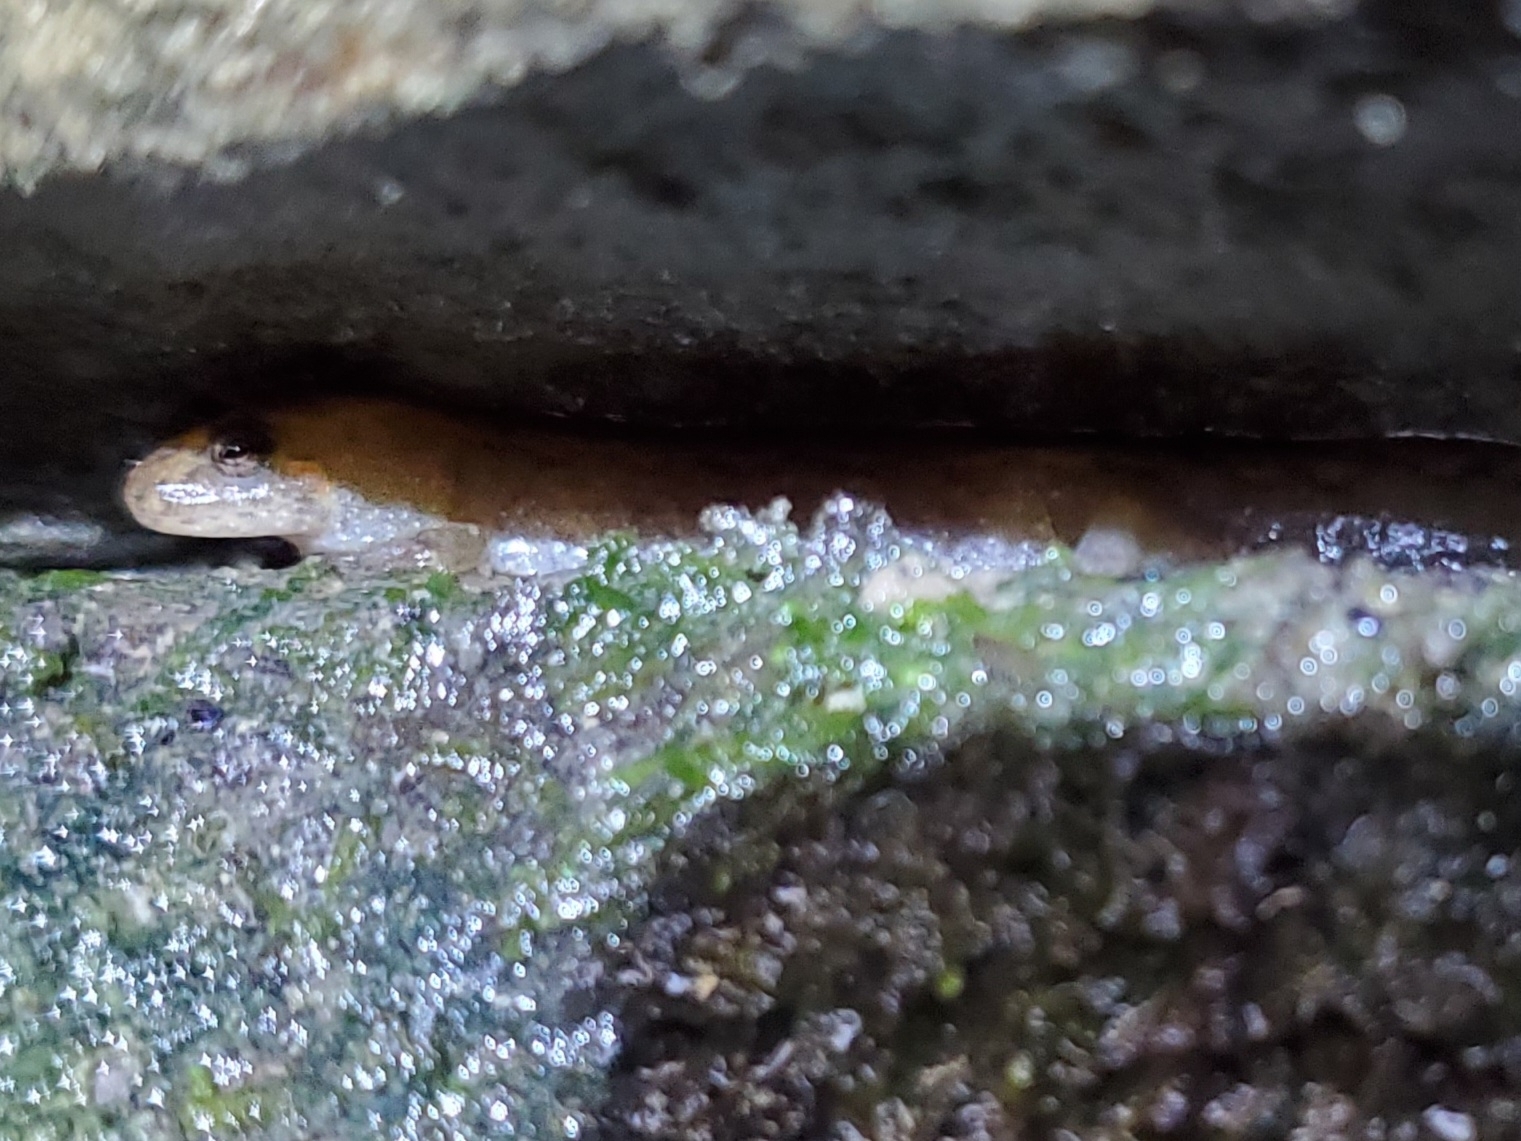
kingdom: Animalia
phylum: Chordata
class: Amphibia
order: Caudata
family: Plethodontidae
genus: Desmognathus
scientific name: Desmognathus conanti
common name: Spotted dusky salamander
